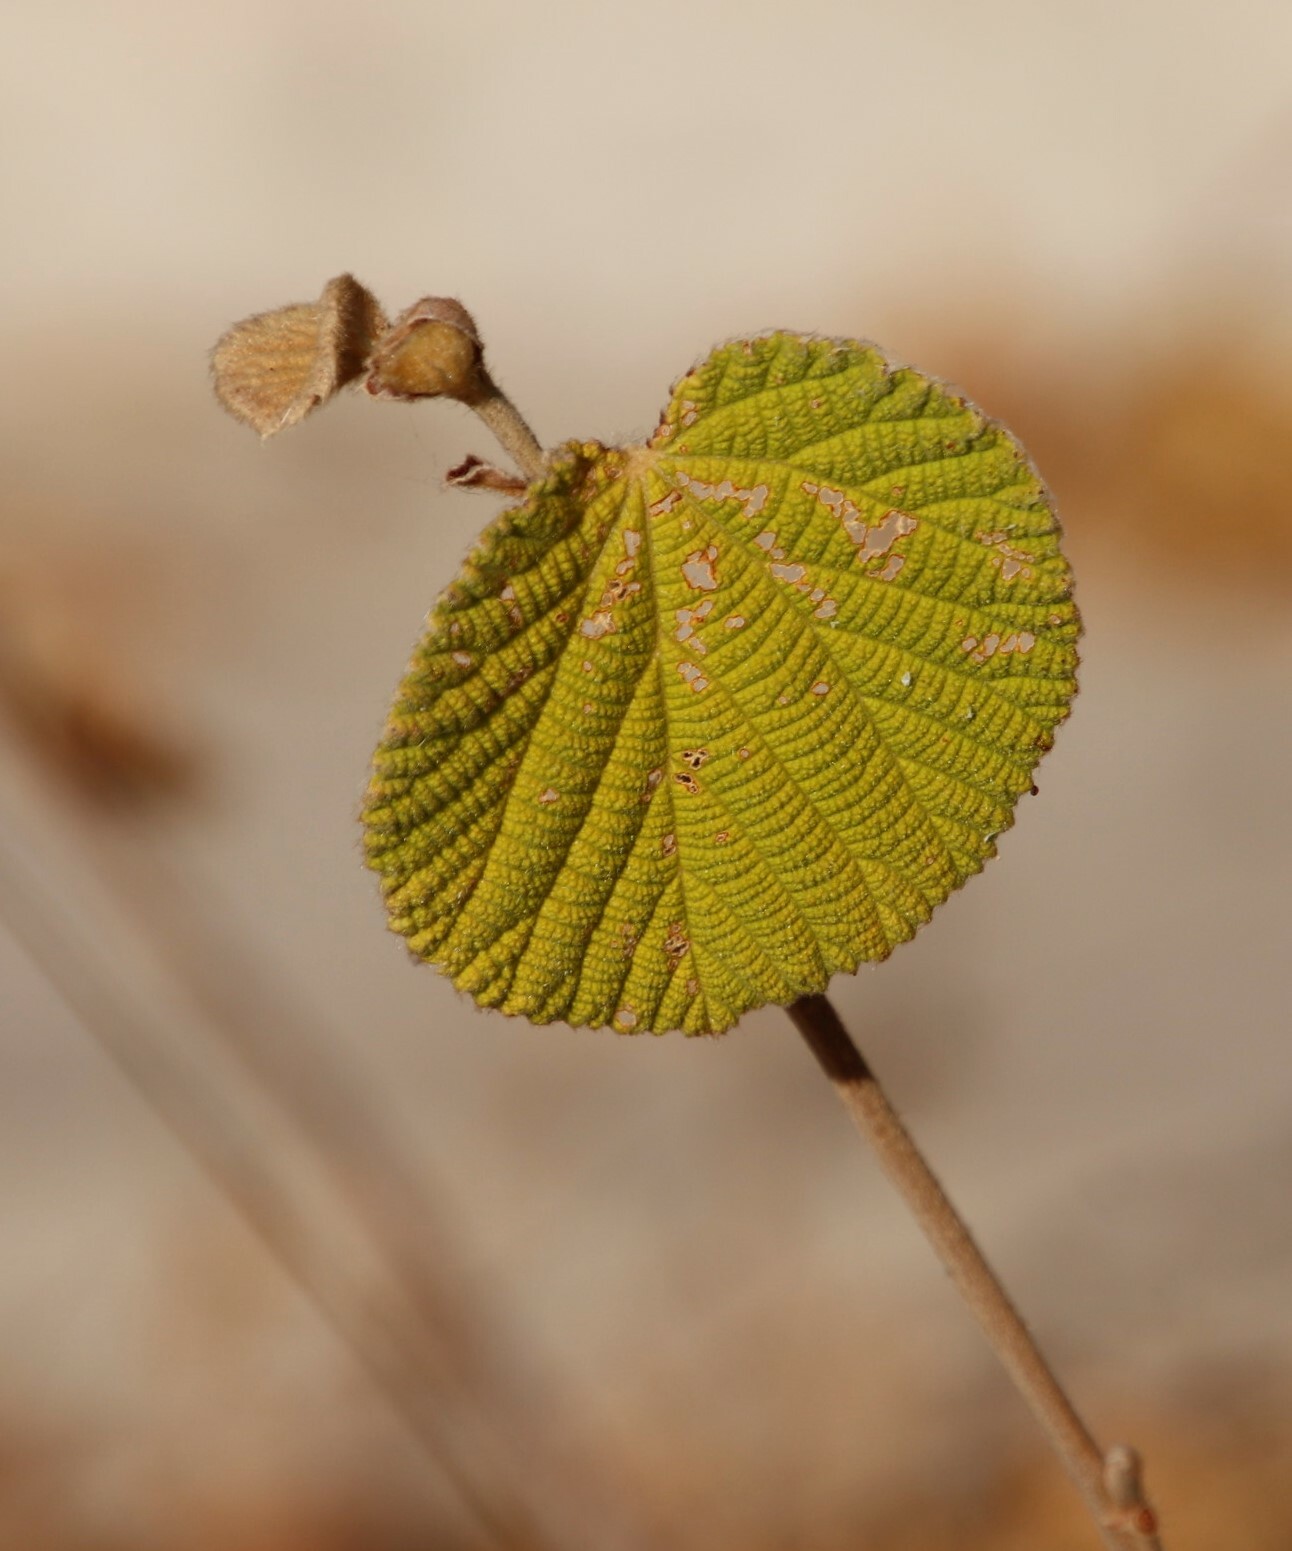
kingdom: Plantae
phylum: Tracheophyta
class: Magnoliopsida
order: Malvales
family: Malvaceae
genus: Grewia
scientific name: Grewia villosa
